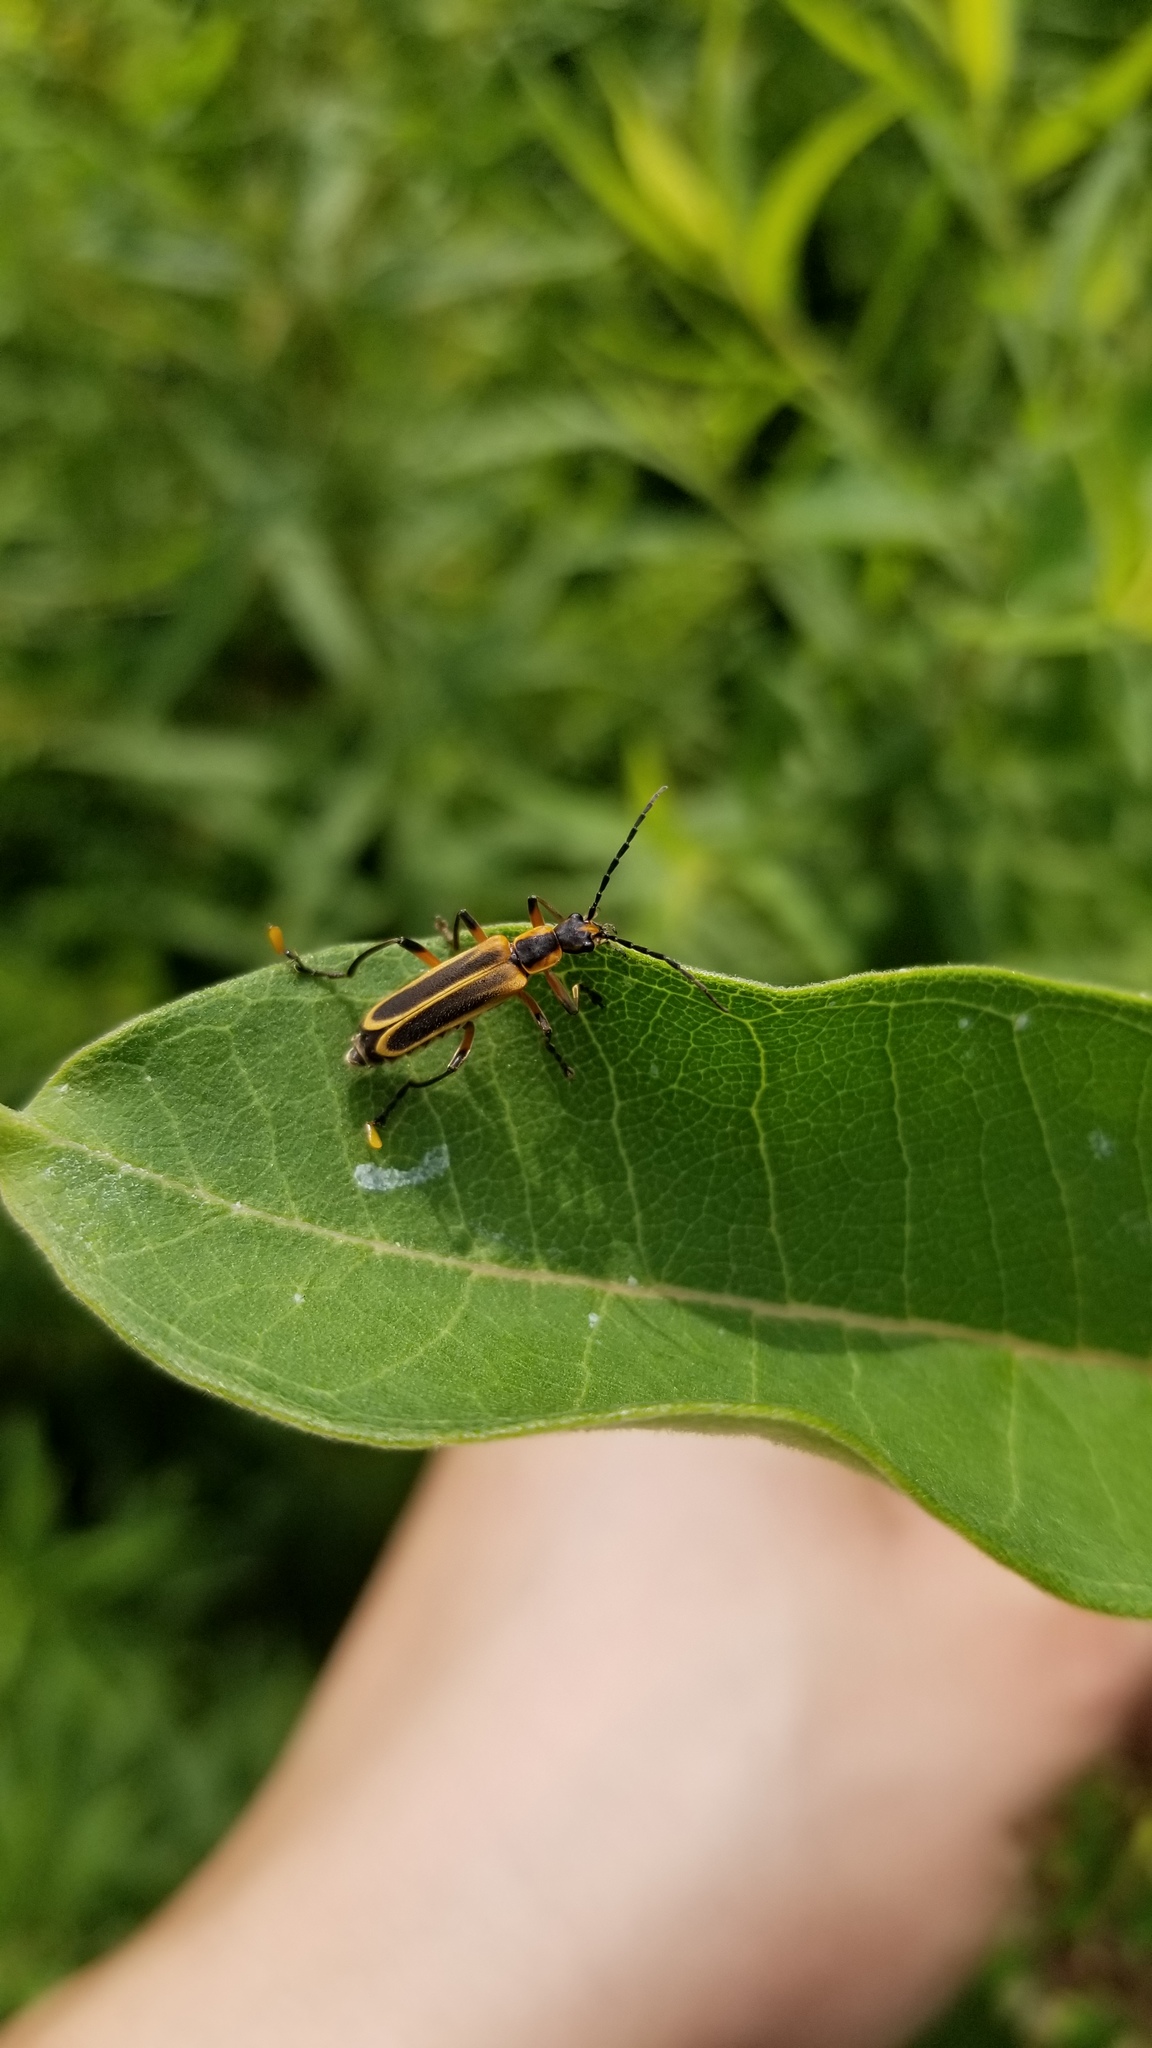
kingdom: Animalia
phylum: Arthropoda
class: Insecta
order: Coleoptera
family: Cantharidae
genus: Chauliognathus
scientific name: Chauliognathus marginatus
